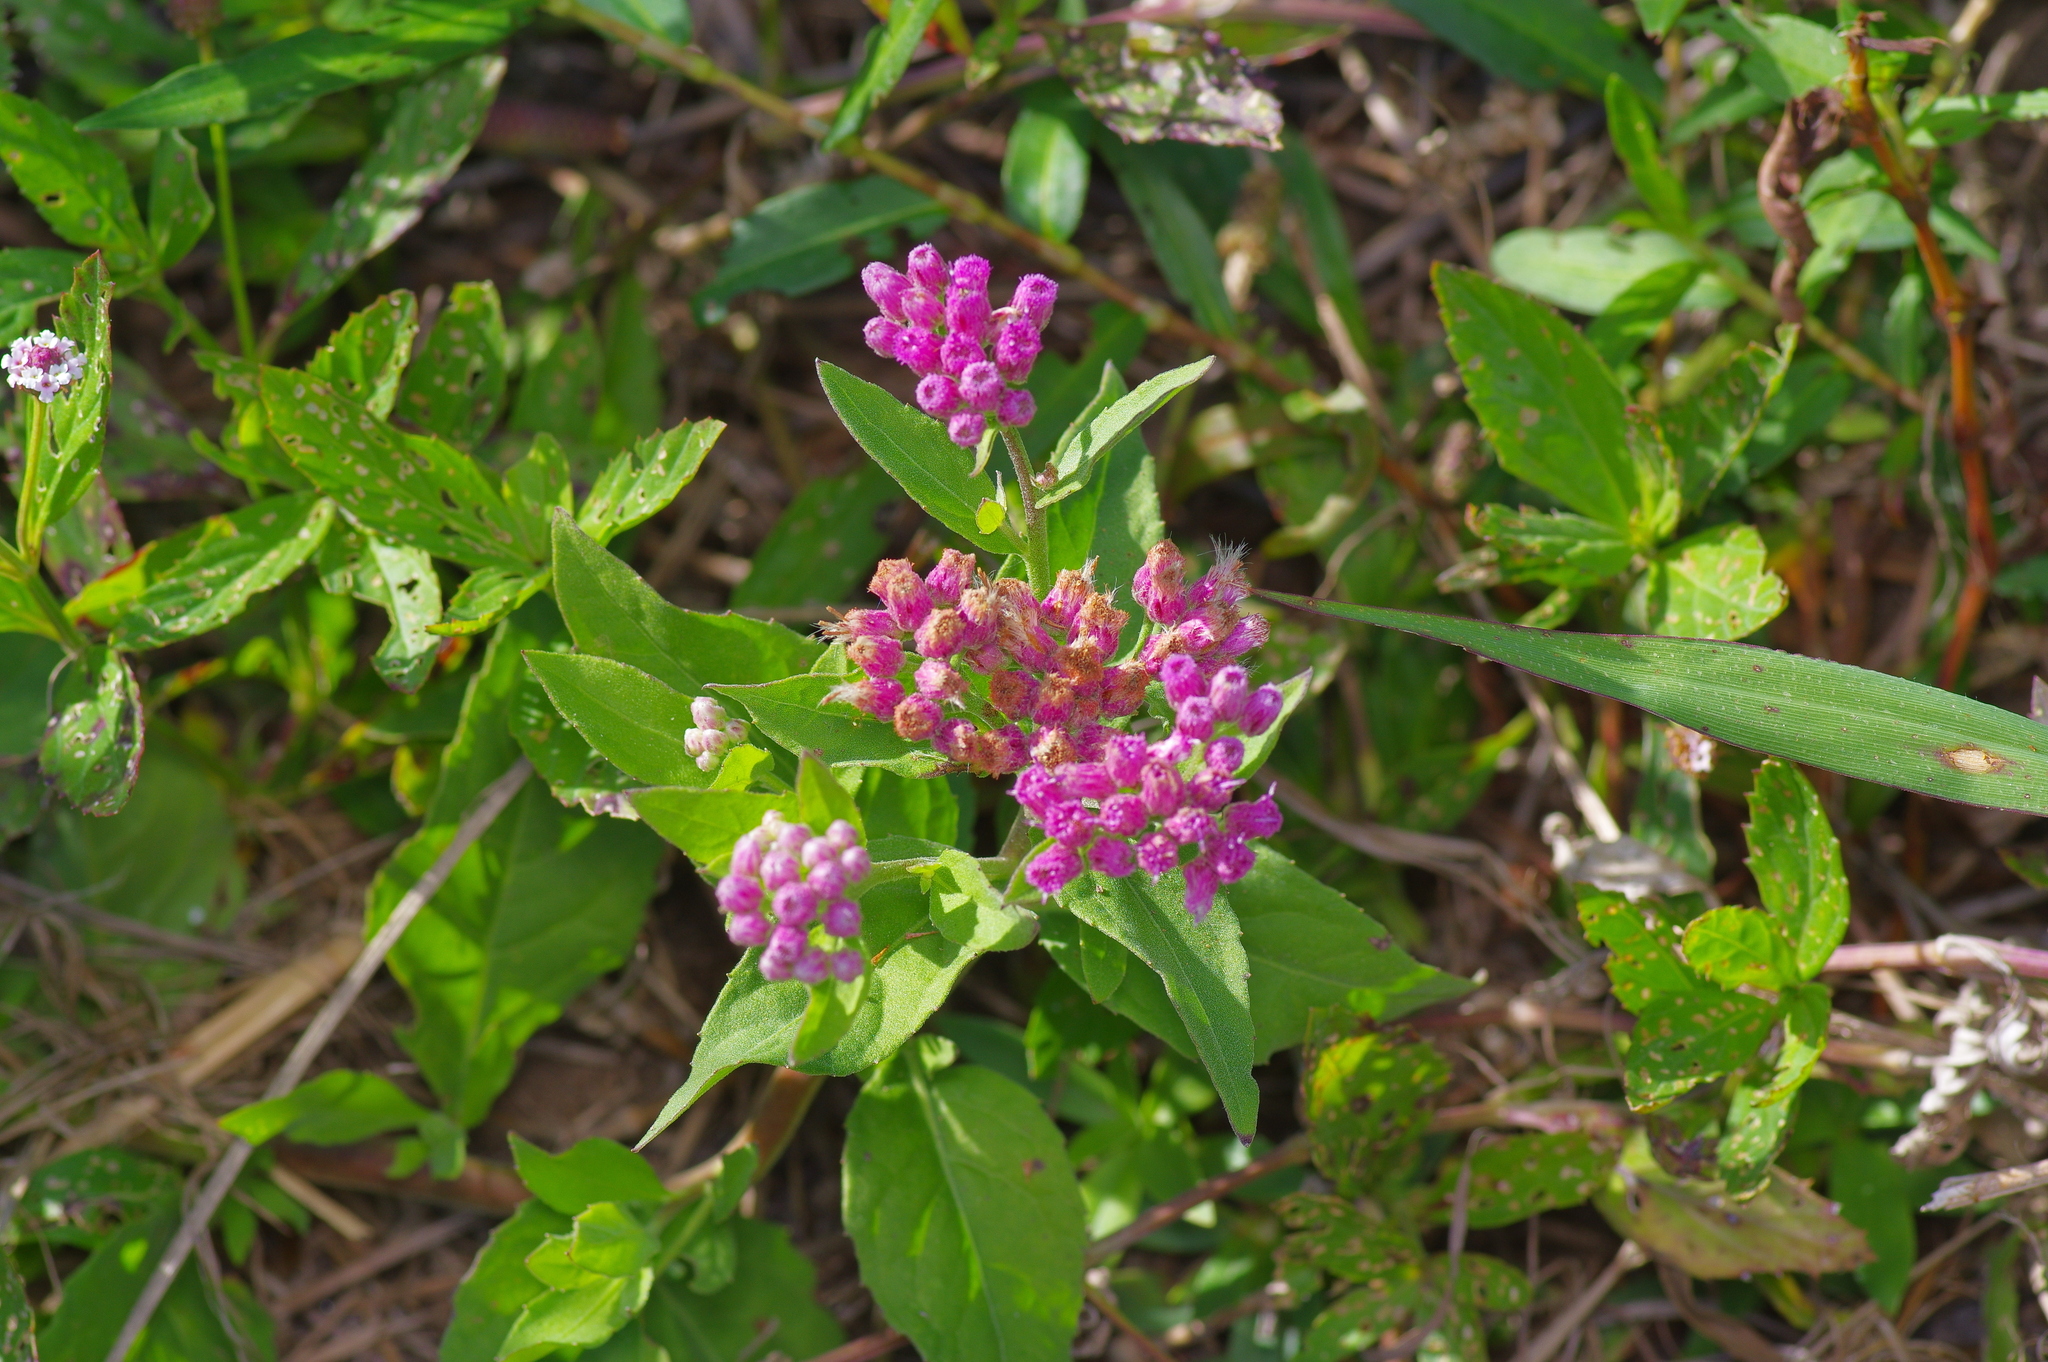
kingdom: Plantae
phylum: Tracheophyta
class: Magnoliopsida
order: Asterales
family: Asteraceae
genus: Pluchea
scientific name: Pluchea odorata
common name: Saltmarsh fleabane
